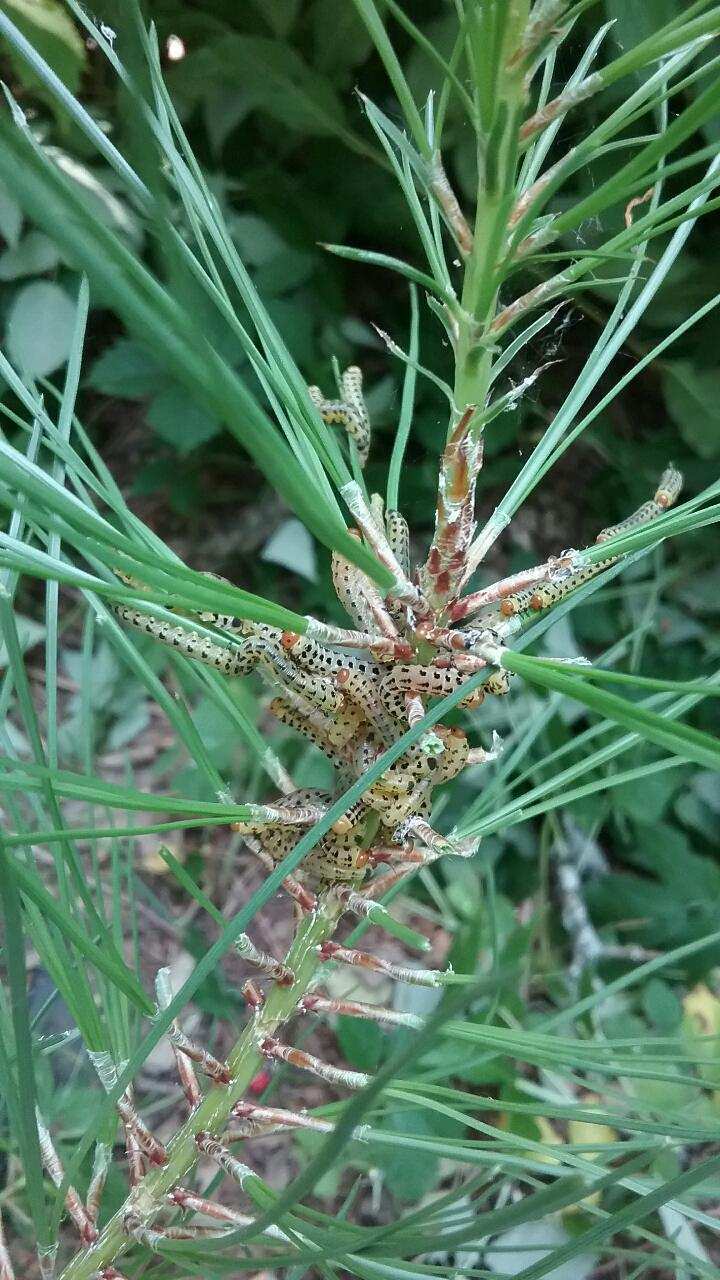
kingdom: Animalia
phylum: Arthropoda
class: Insecta
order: Hymenoptera
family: Diprionidae
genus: Neodiprion
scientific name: Neodiprion lecontei
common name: Redheaded pine sawfly
